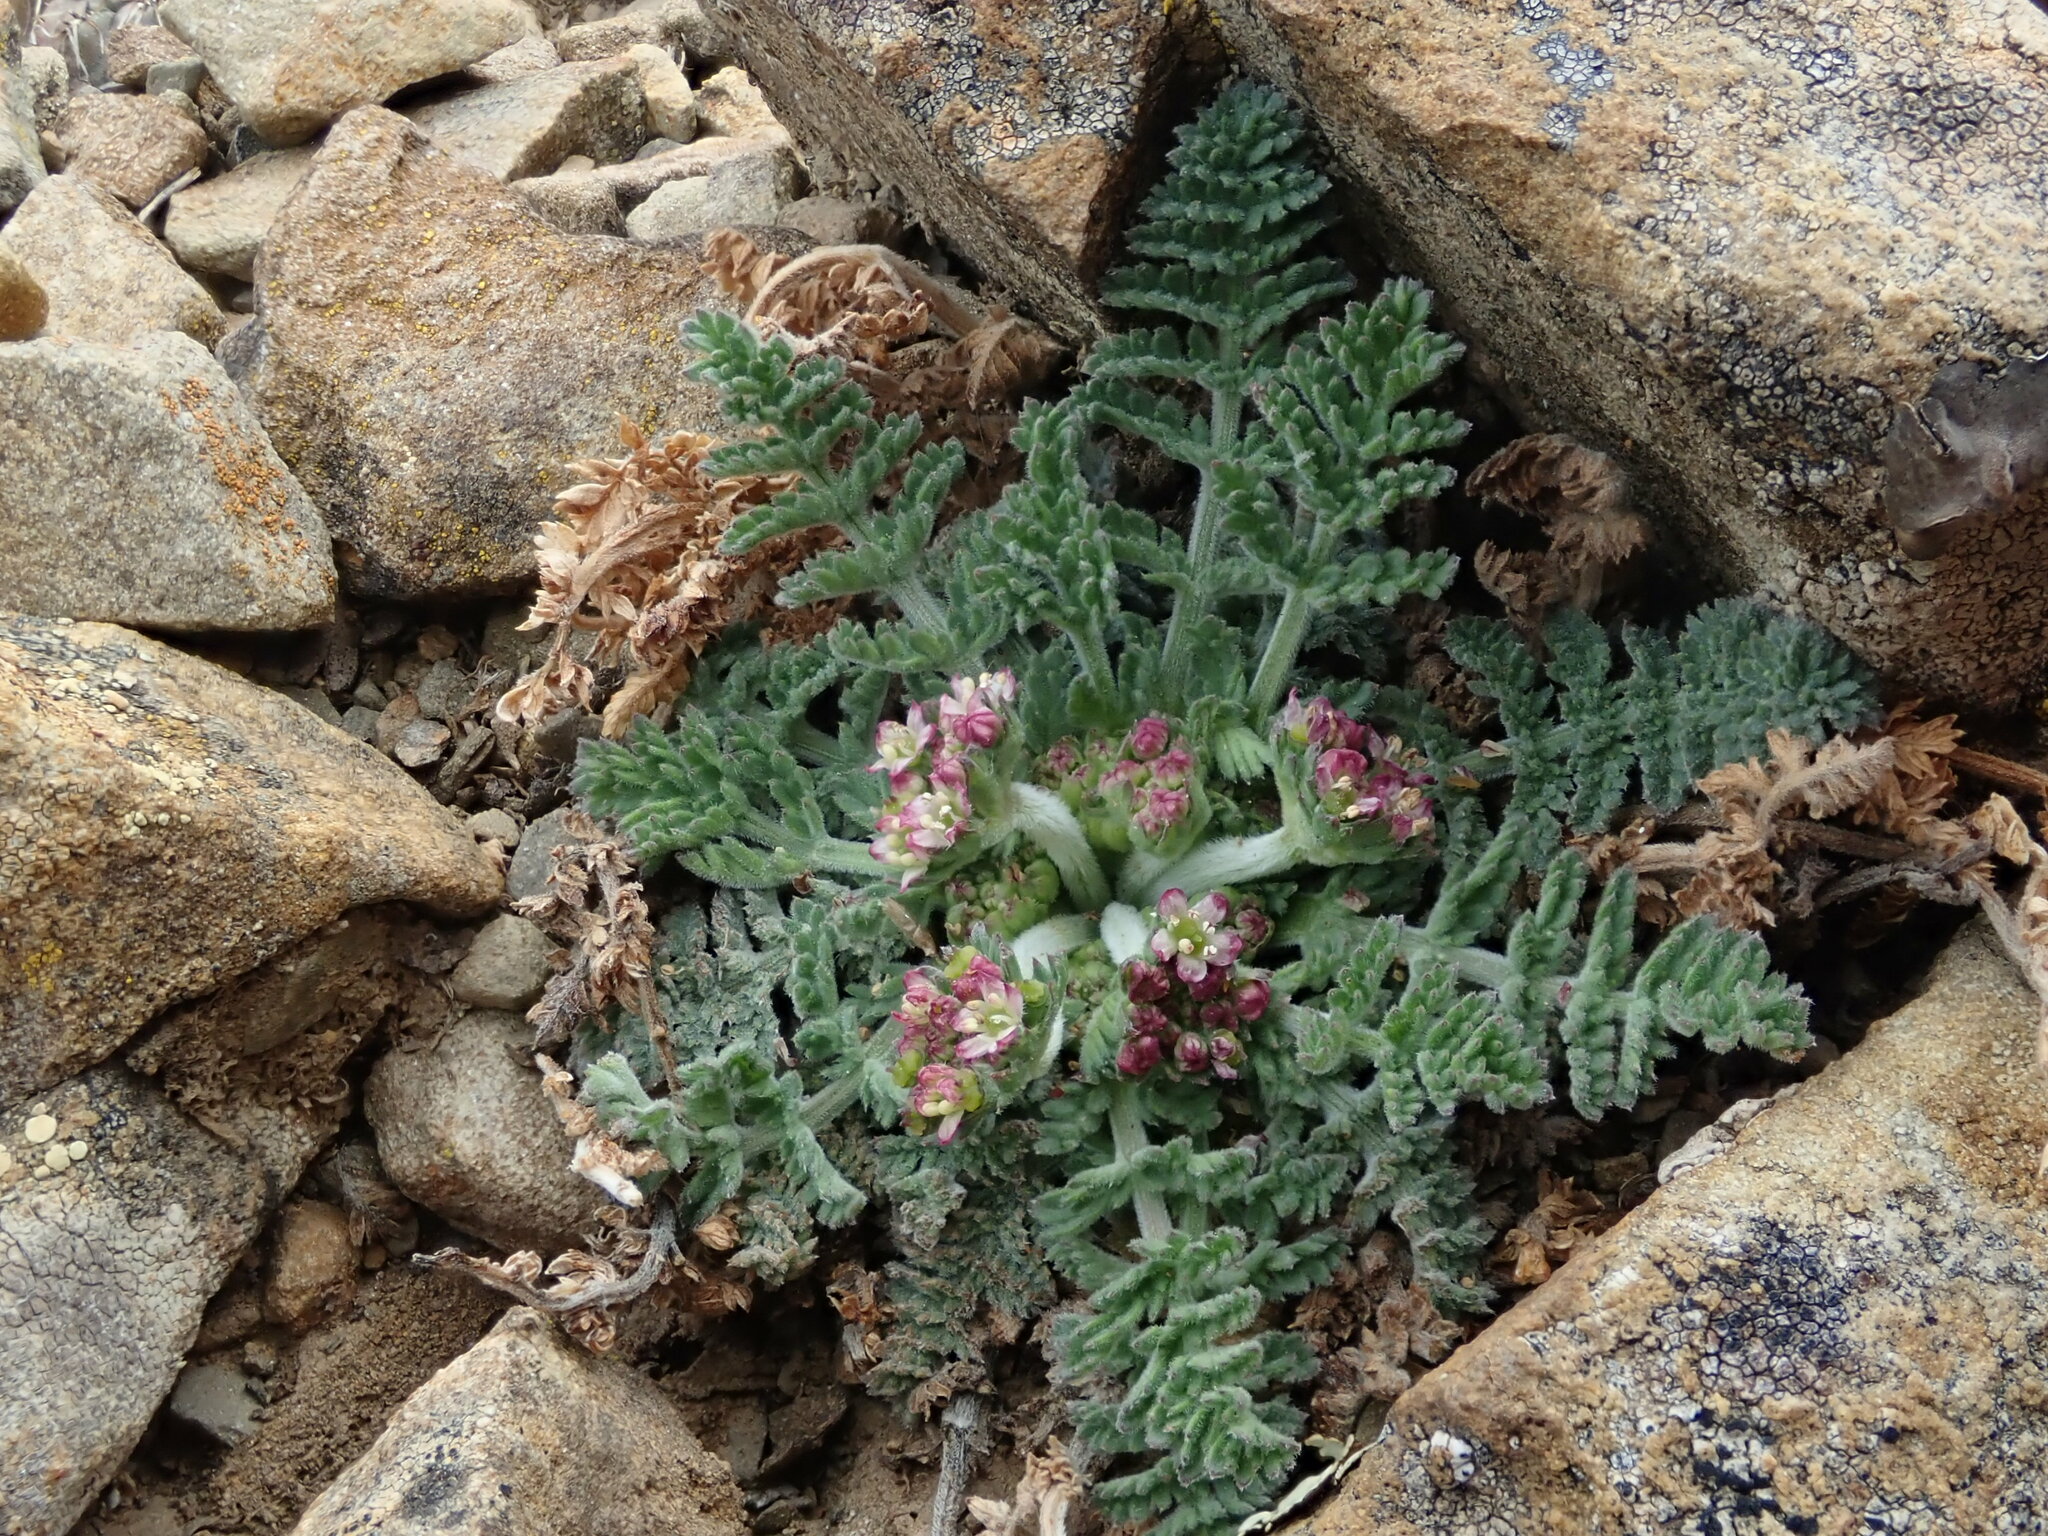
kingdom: Plantae
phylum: Tracheophyta
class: Magnoliopsida
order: Apiales
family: Apiaceae
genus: Chaerophyllum
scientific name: Chaerophyllum andicola
